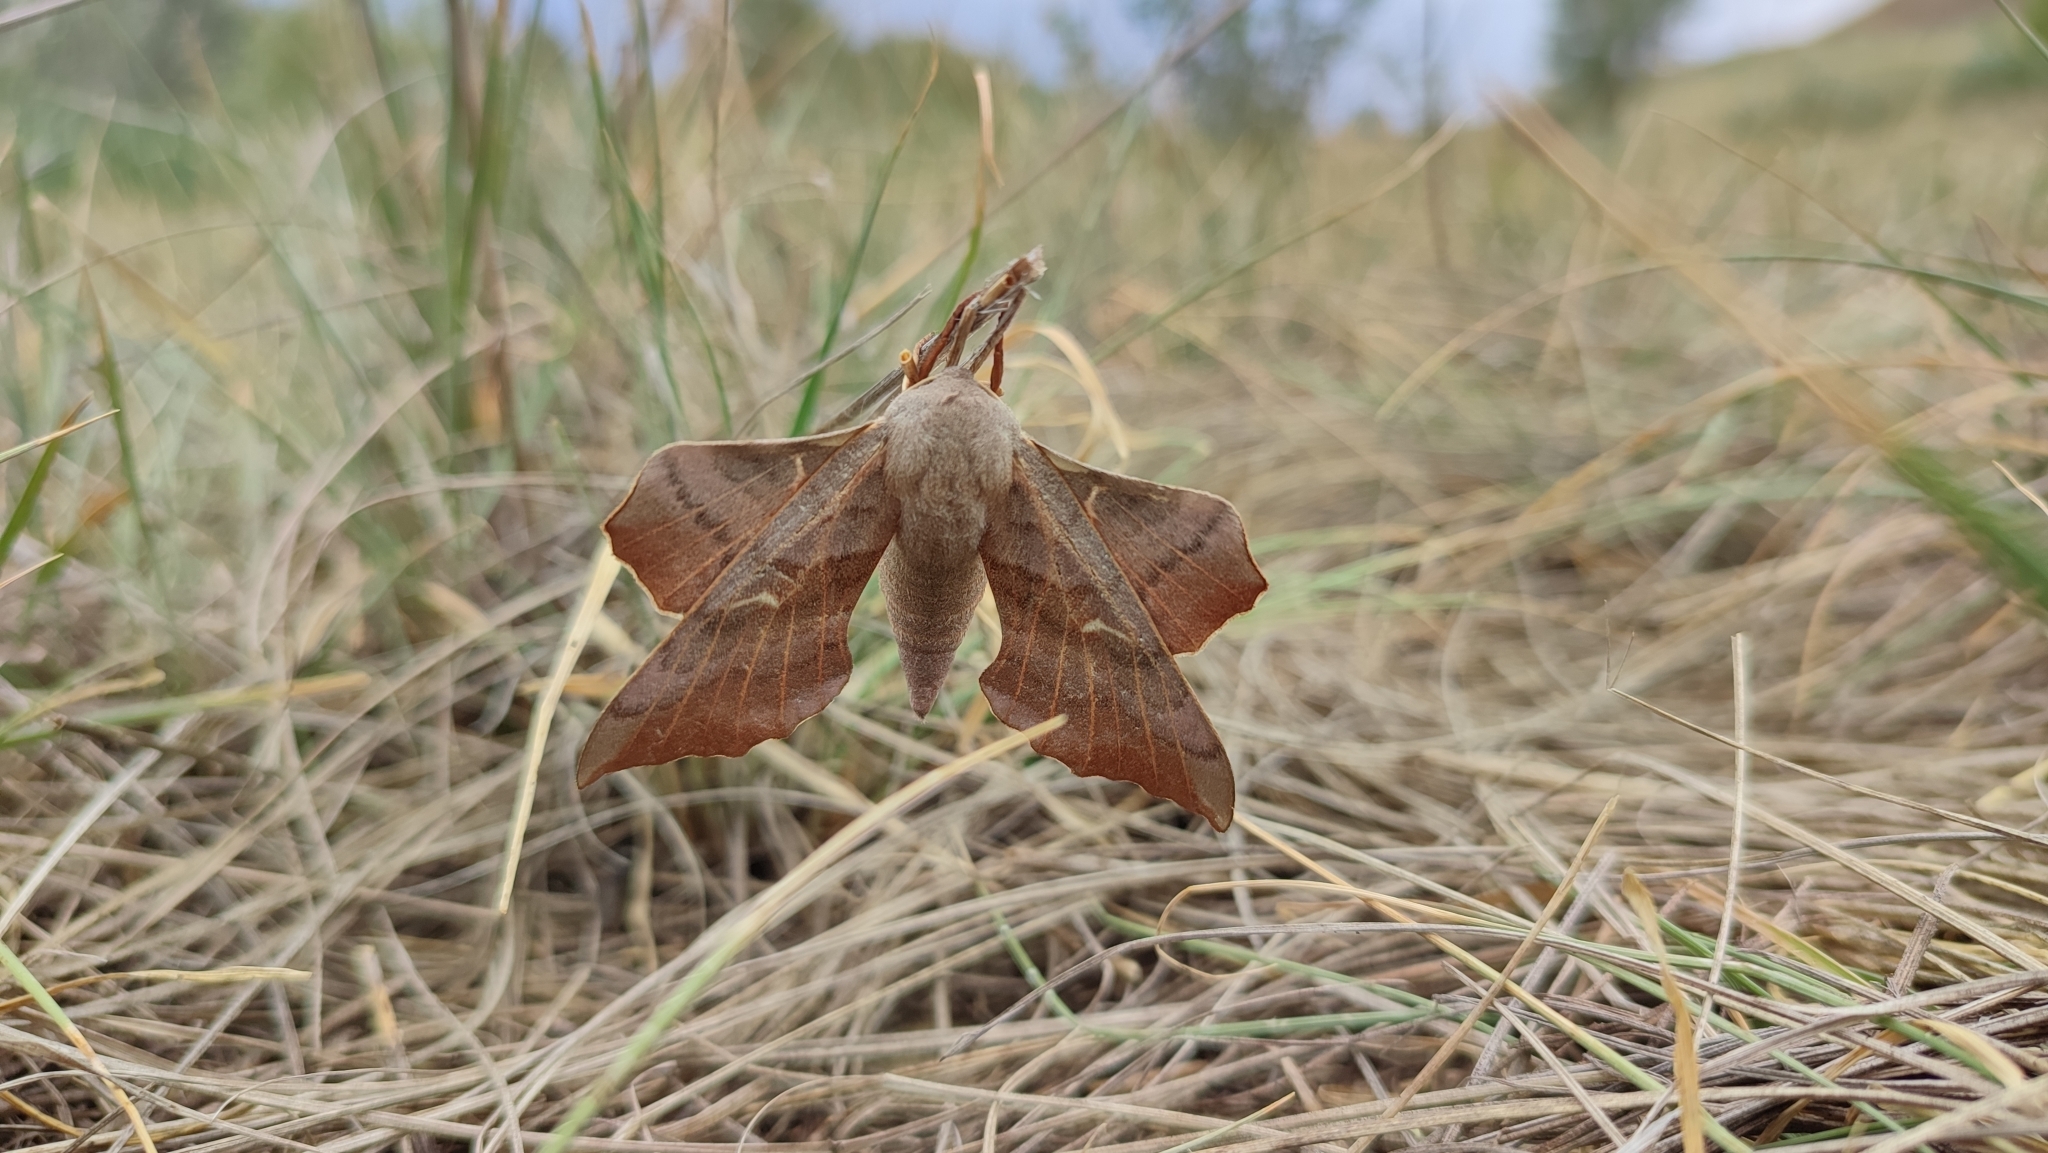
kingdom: Animalia
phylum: Arthropoda
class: Insecta
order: Lepidoptera
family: Sphingidae
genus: Laothoe
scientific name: Laothoe populi
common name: Poplar hawk-moth
